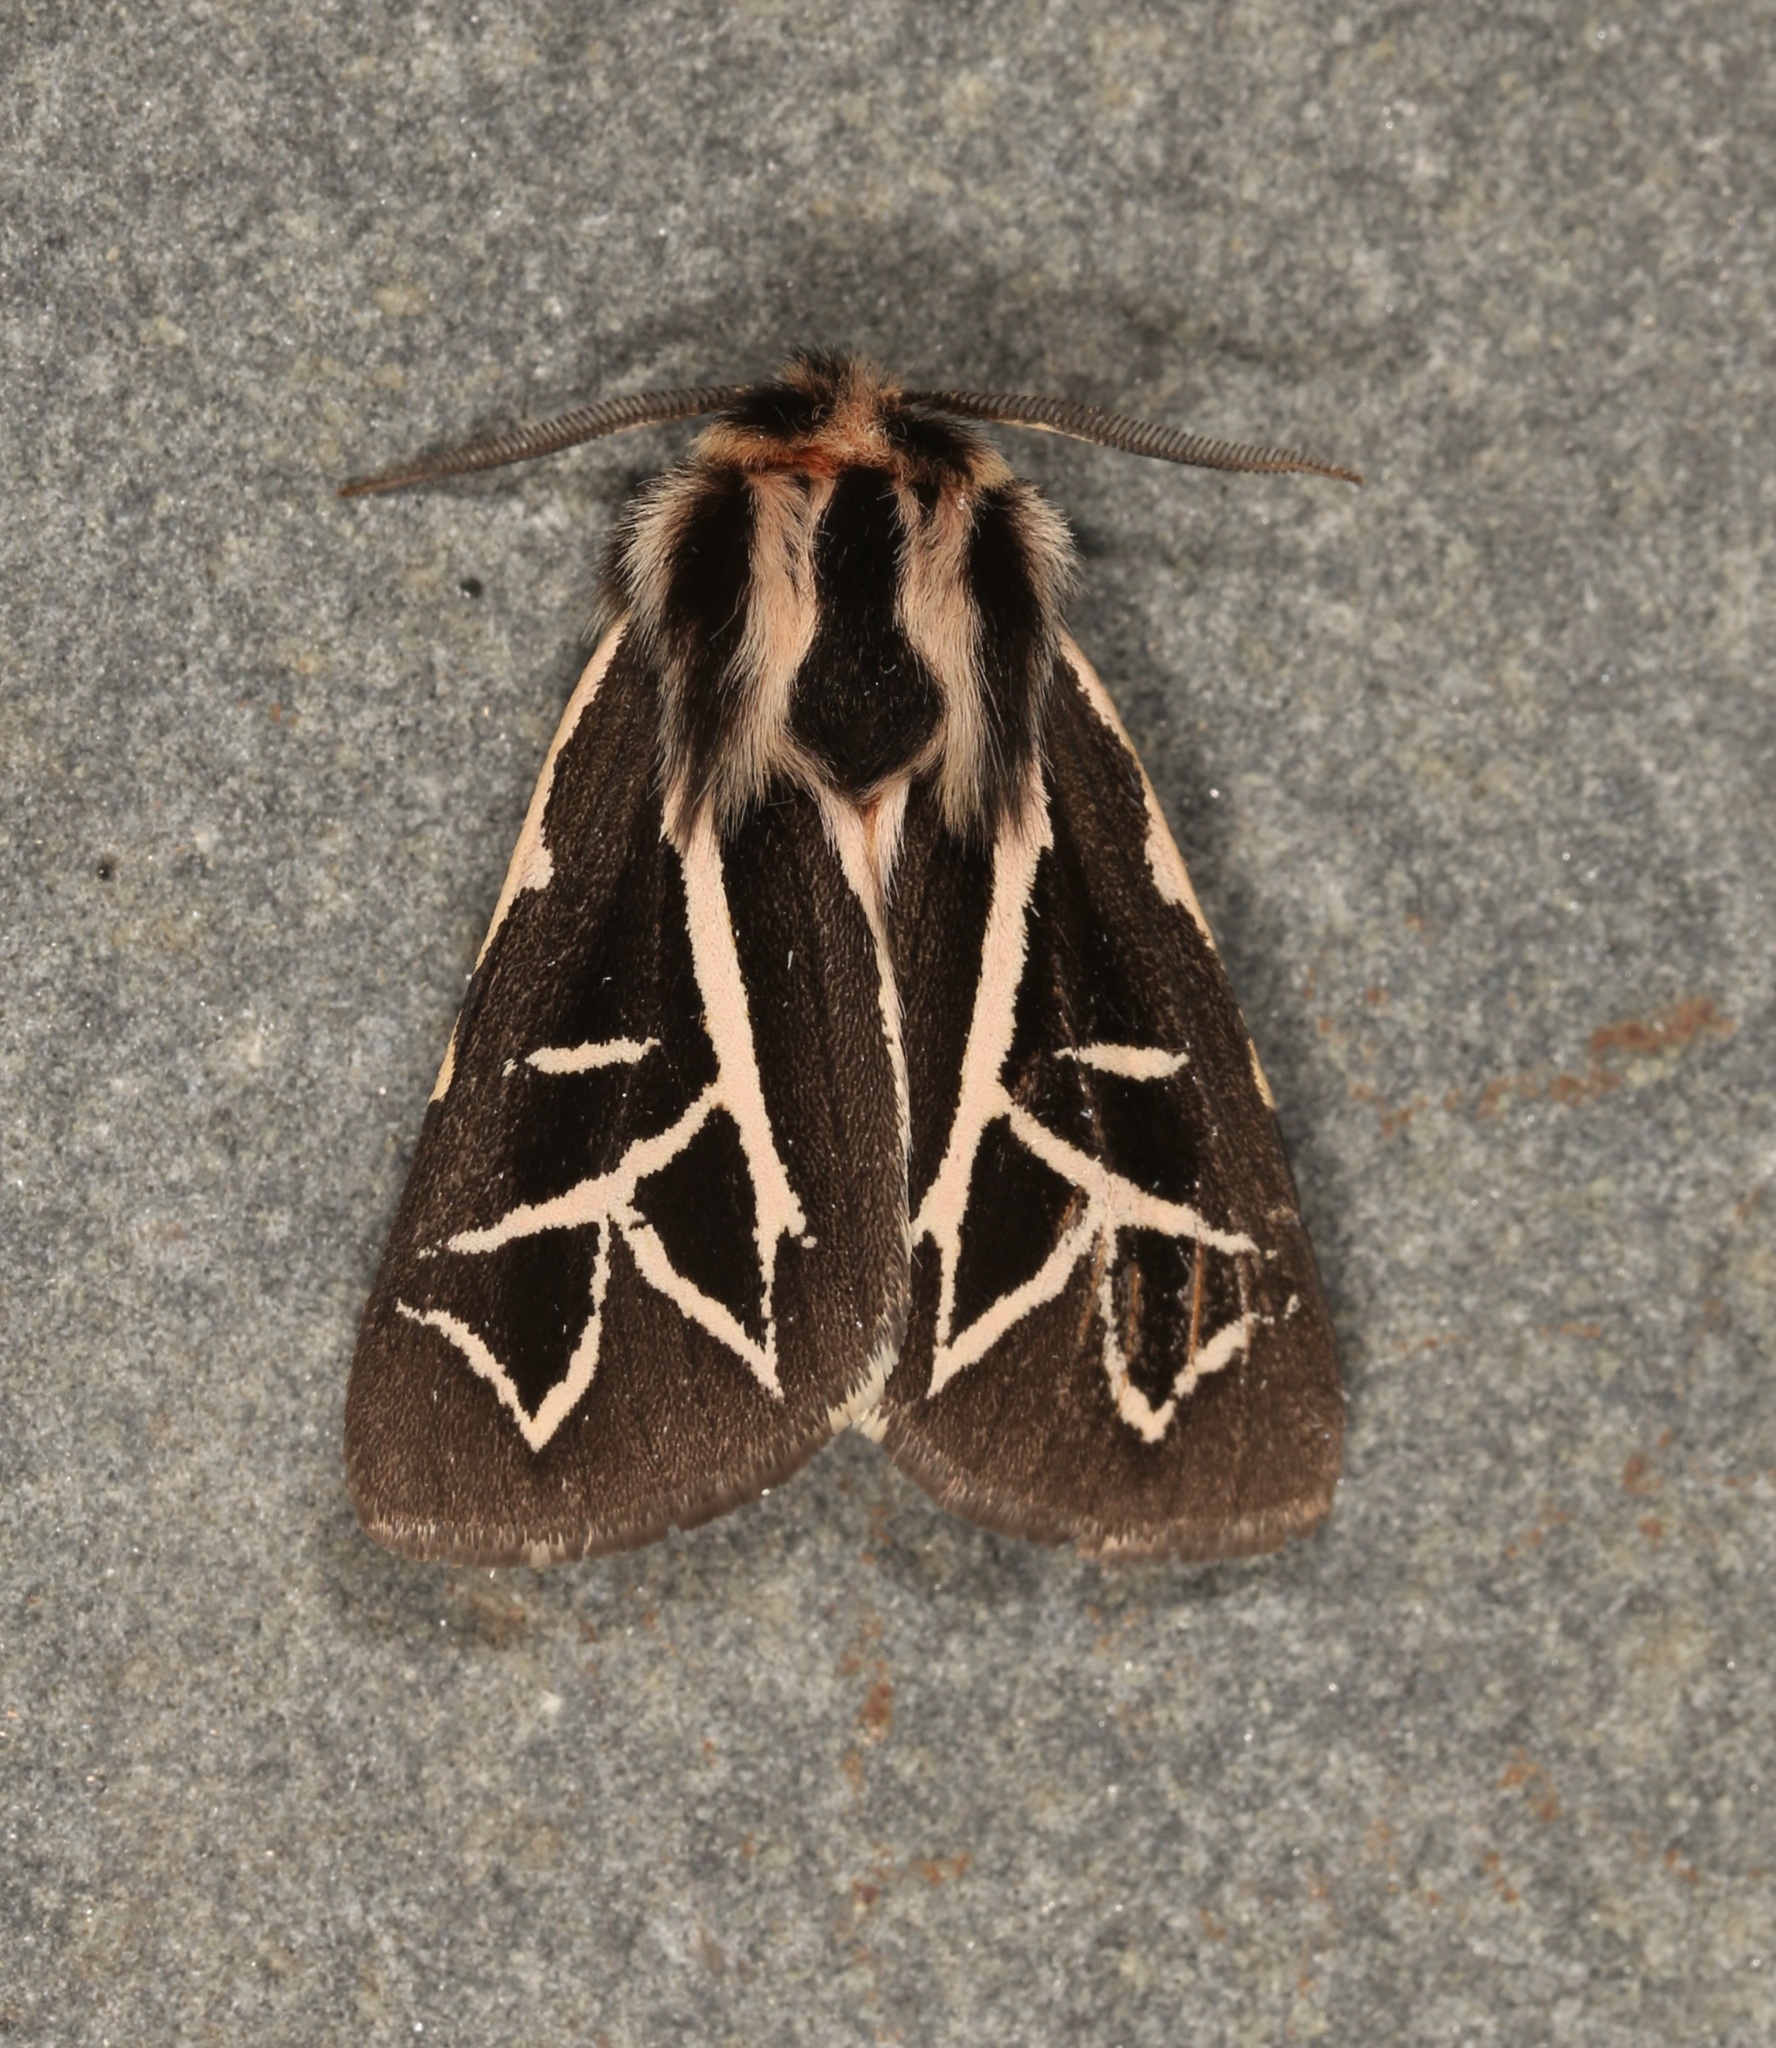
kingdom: Animalia
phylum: Arthropoda
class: Insecta
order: Lepidoptera
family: Erebidae
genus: Apantesis
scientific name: Apantesis
